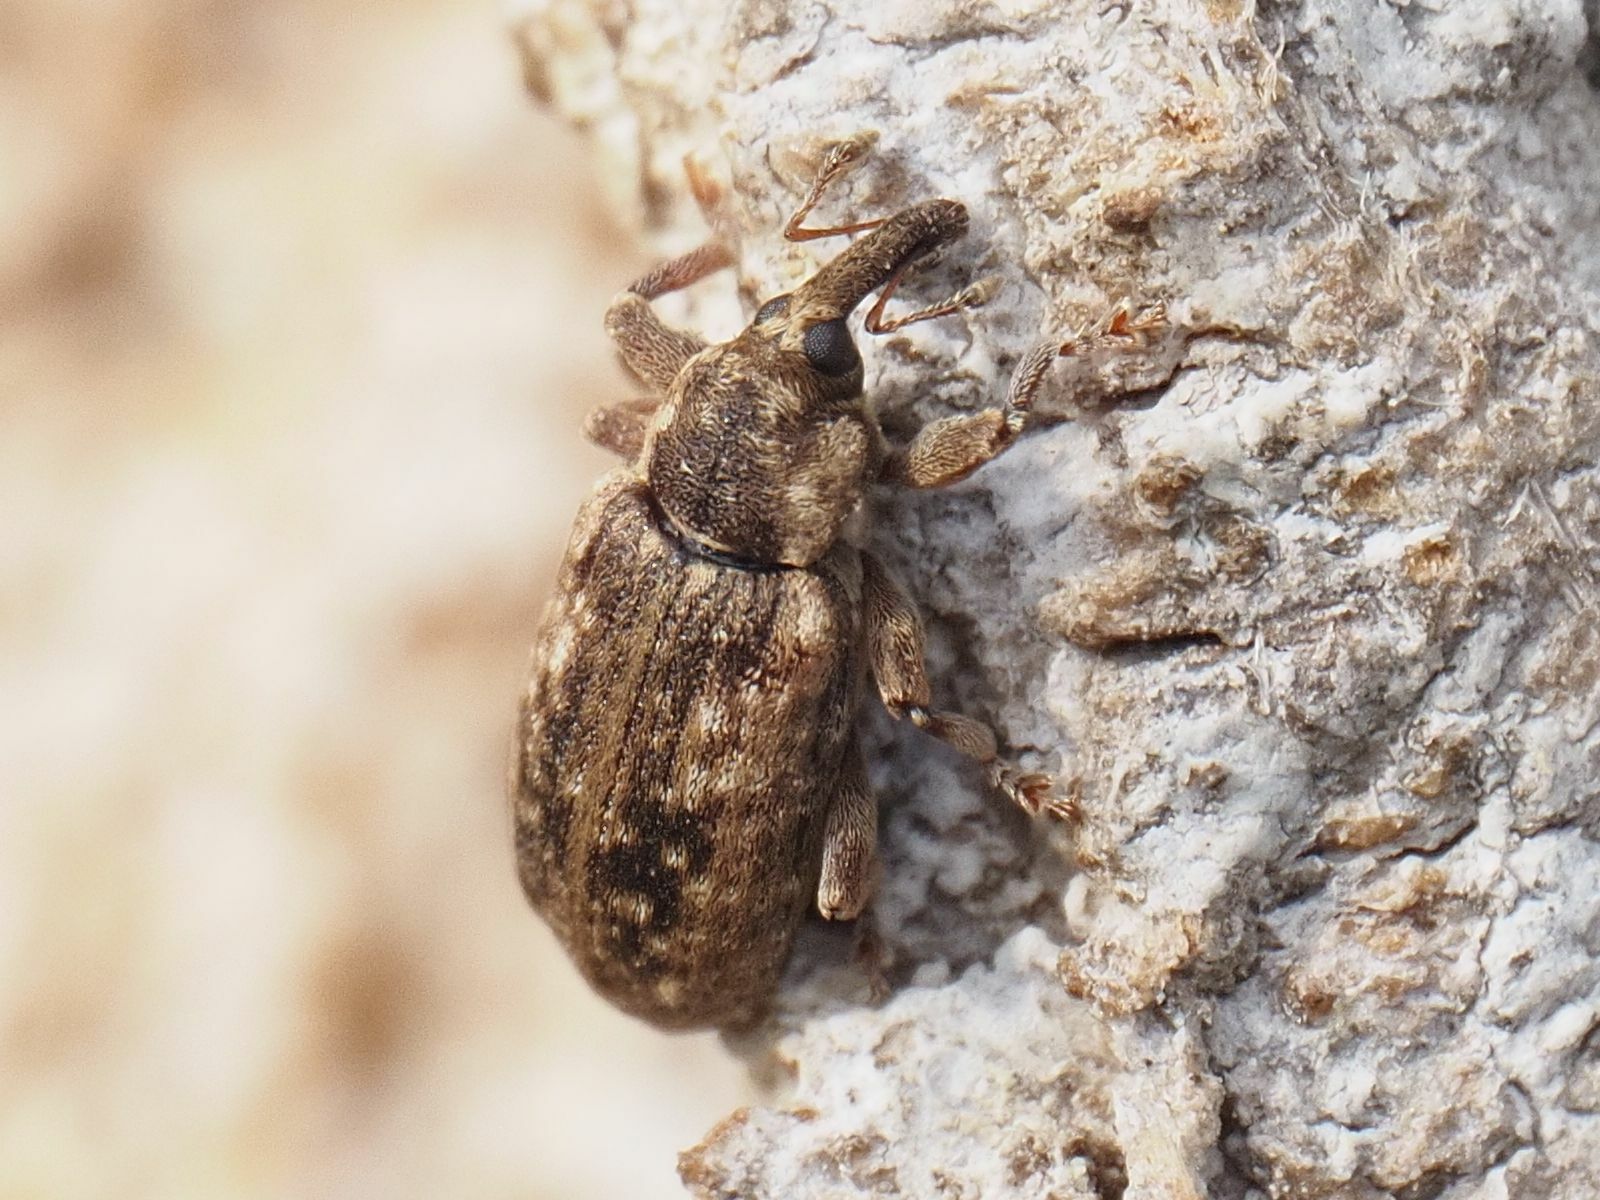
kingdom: Animalia
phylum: Arthropoda
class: Insecta
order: Coleoptera
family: Curculionidae
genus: Dorytomus
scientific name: Dorytomus ictor
